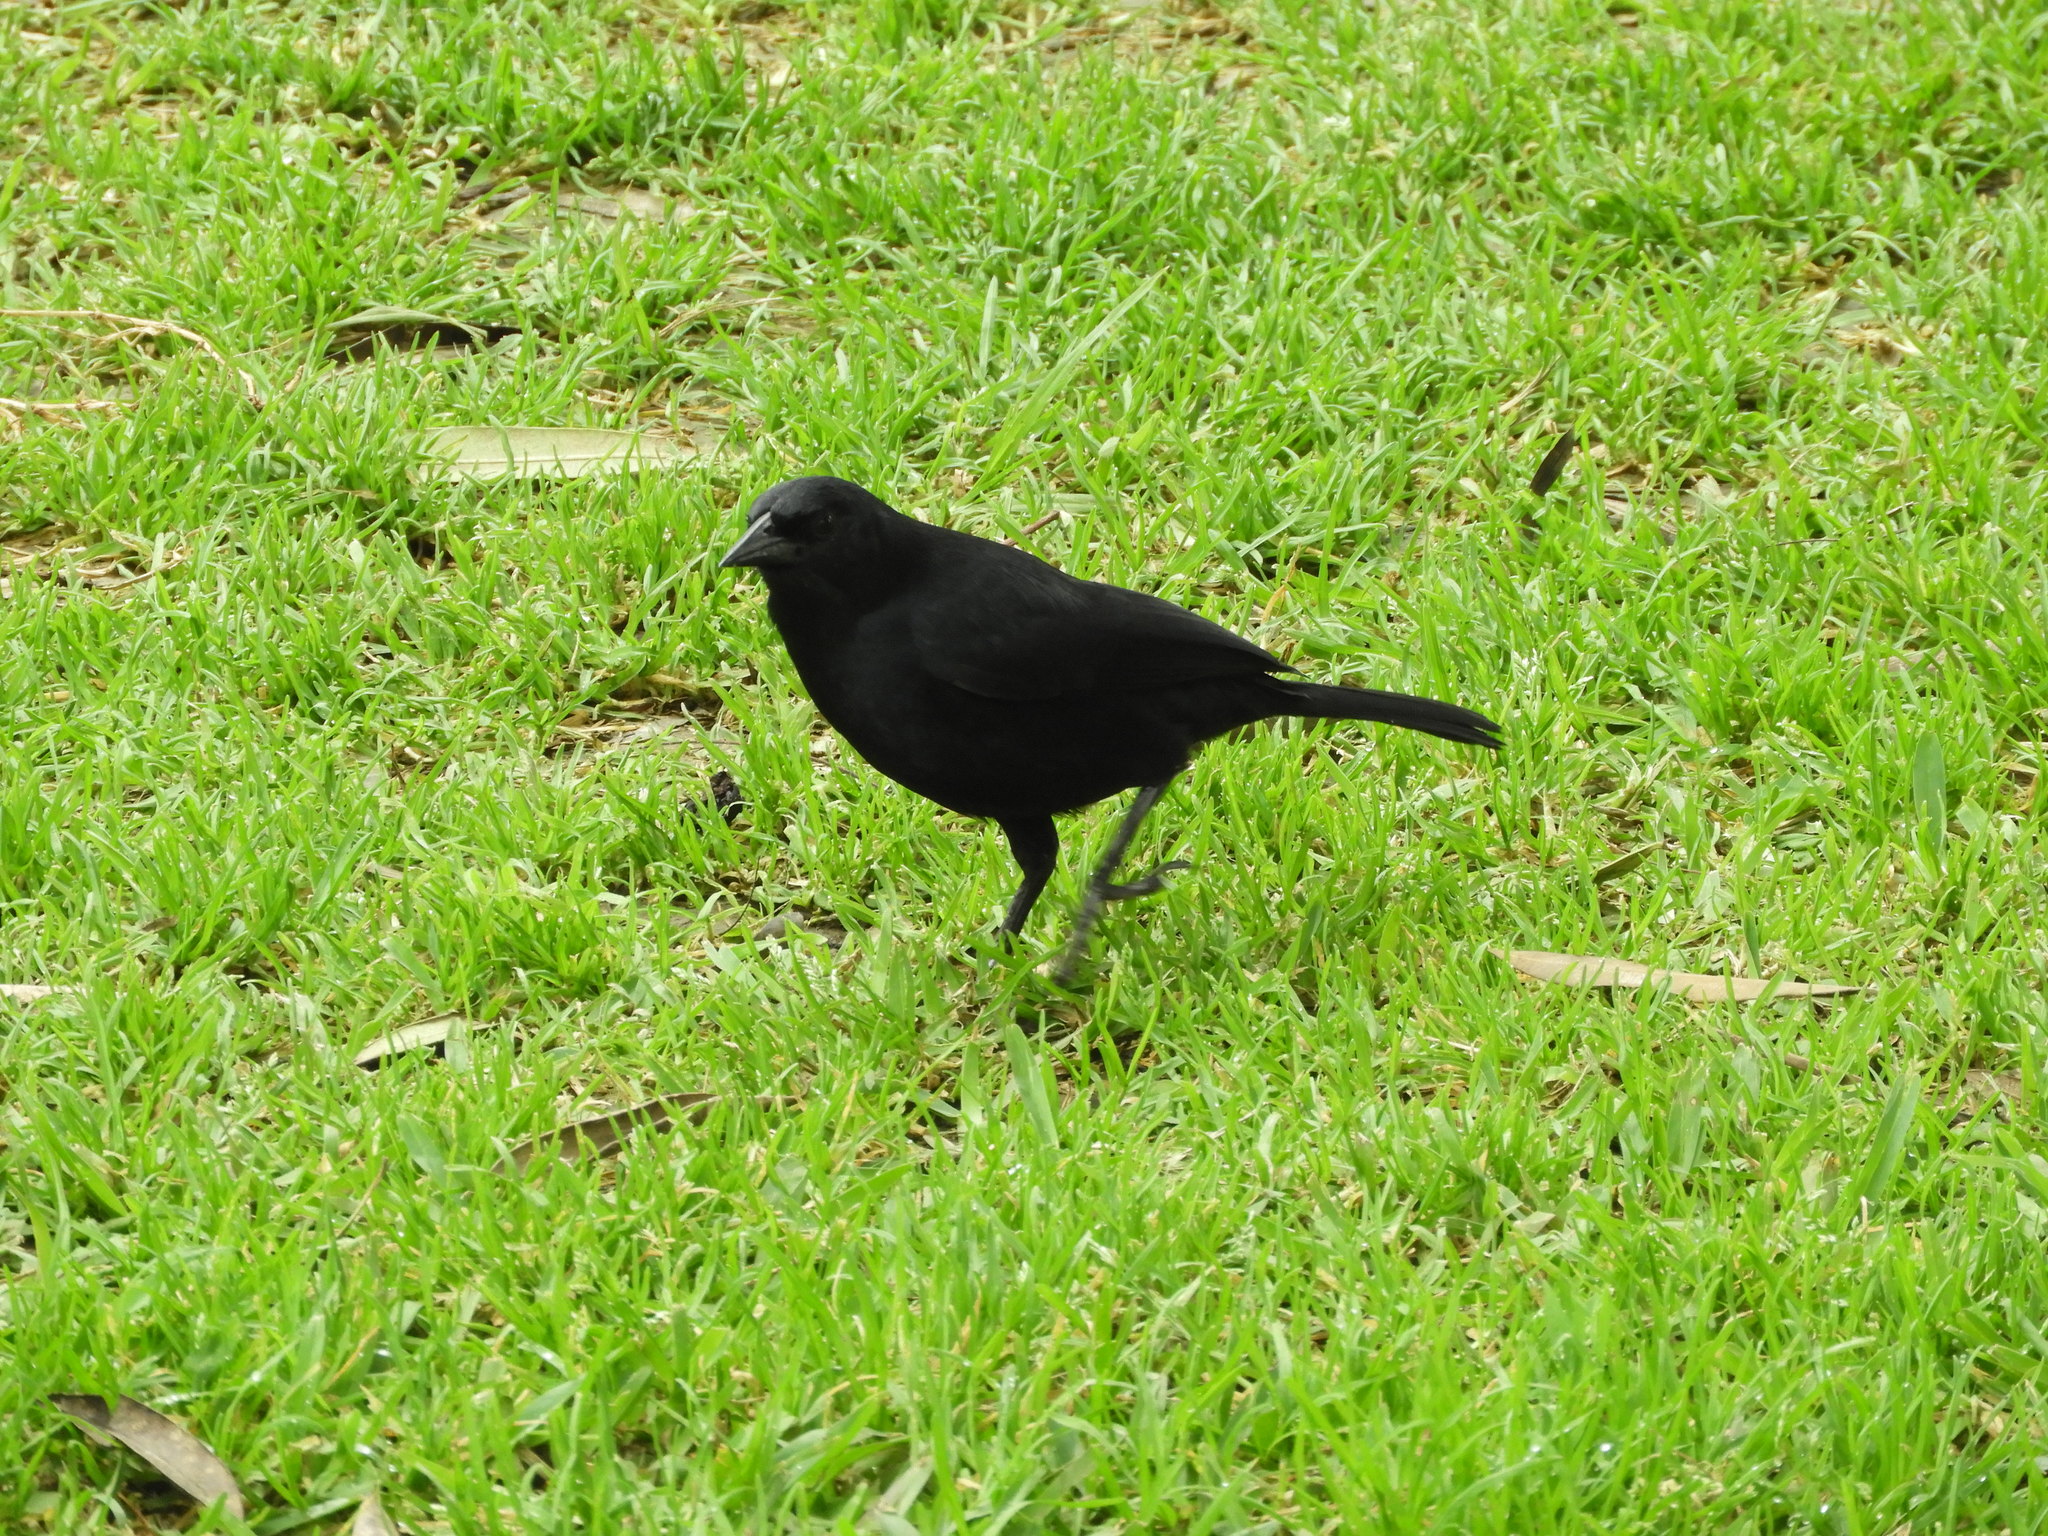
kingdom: Animalia
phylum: Chordata
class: Aves
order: Passeriformes
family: Icteridae
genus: Dives
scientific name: Dives warczewiczi
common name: Scrub blackbird
